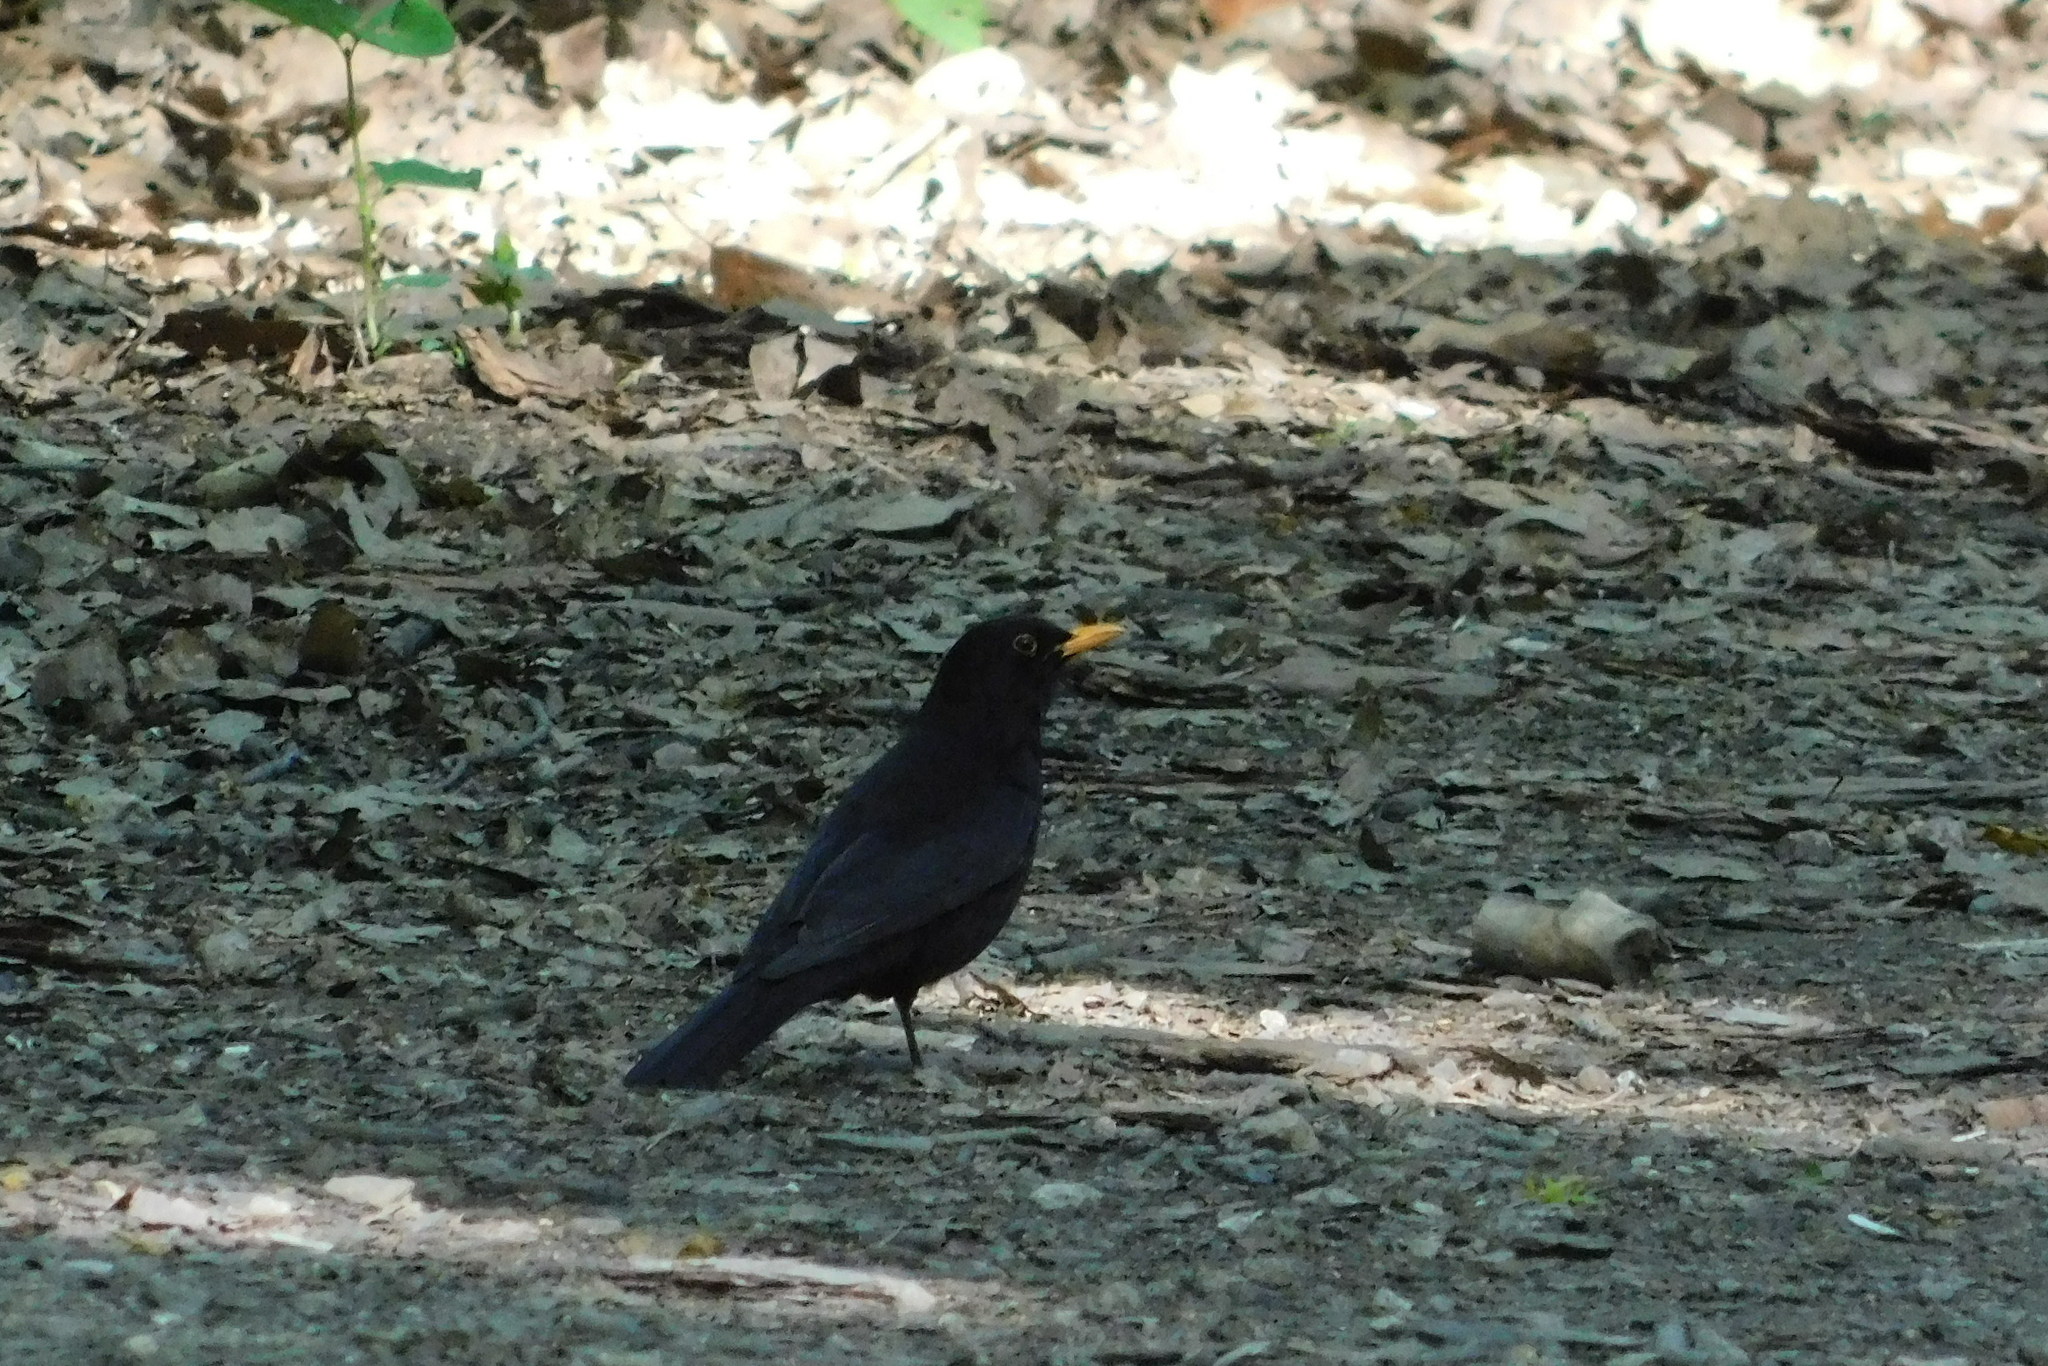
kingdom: Animalia
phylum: Chordata
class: Aves
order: Passeriformes
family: Turdidae
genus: Turdus
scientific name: Turdus merula
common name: Common blackbird
